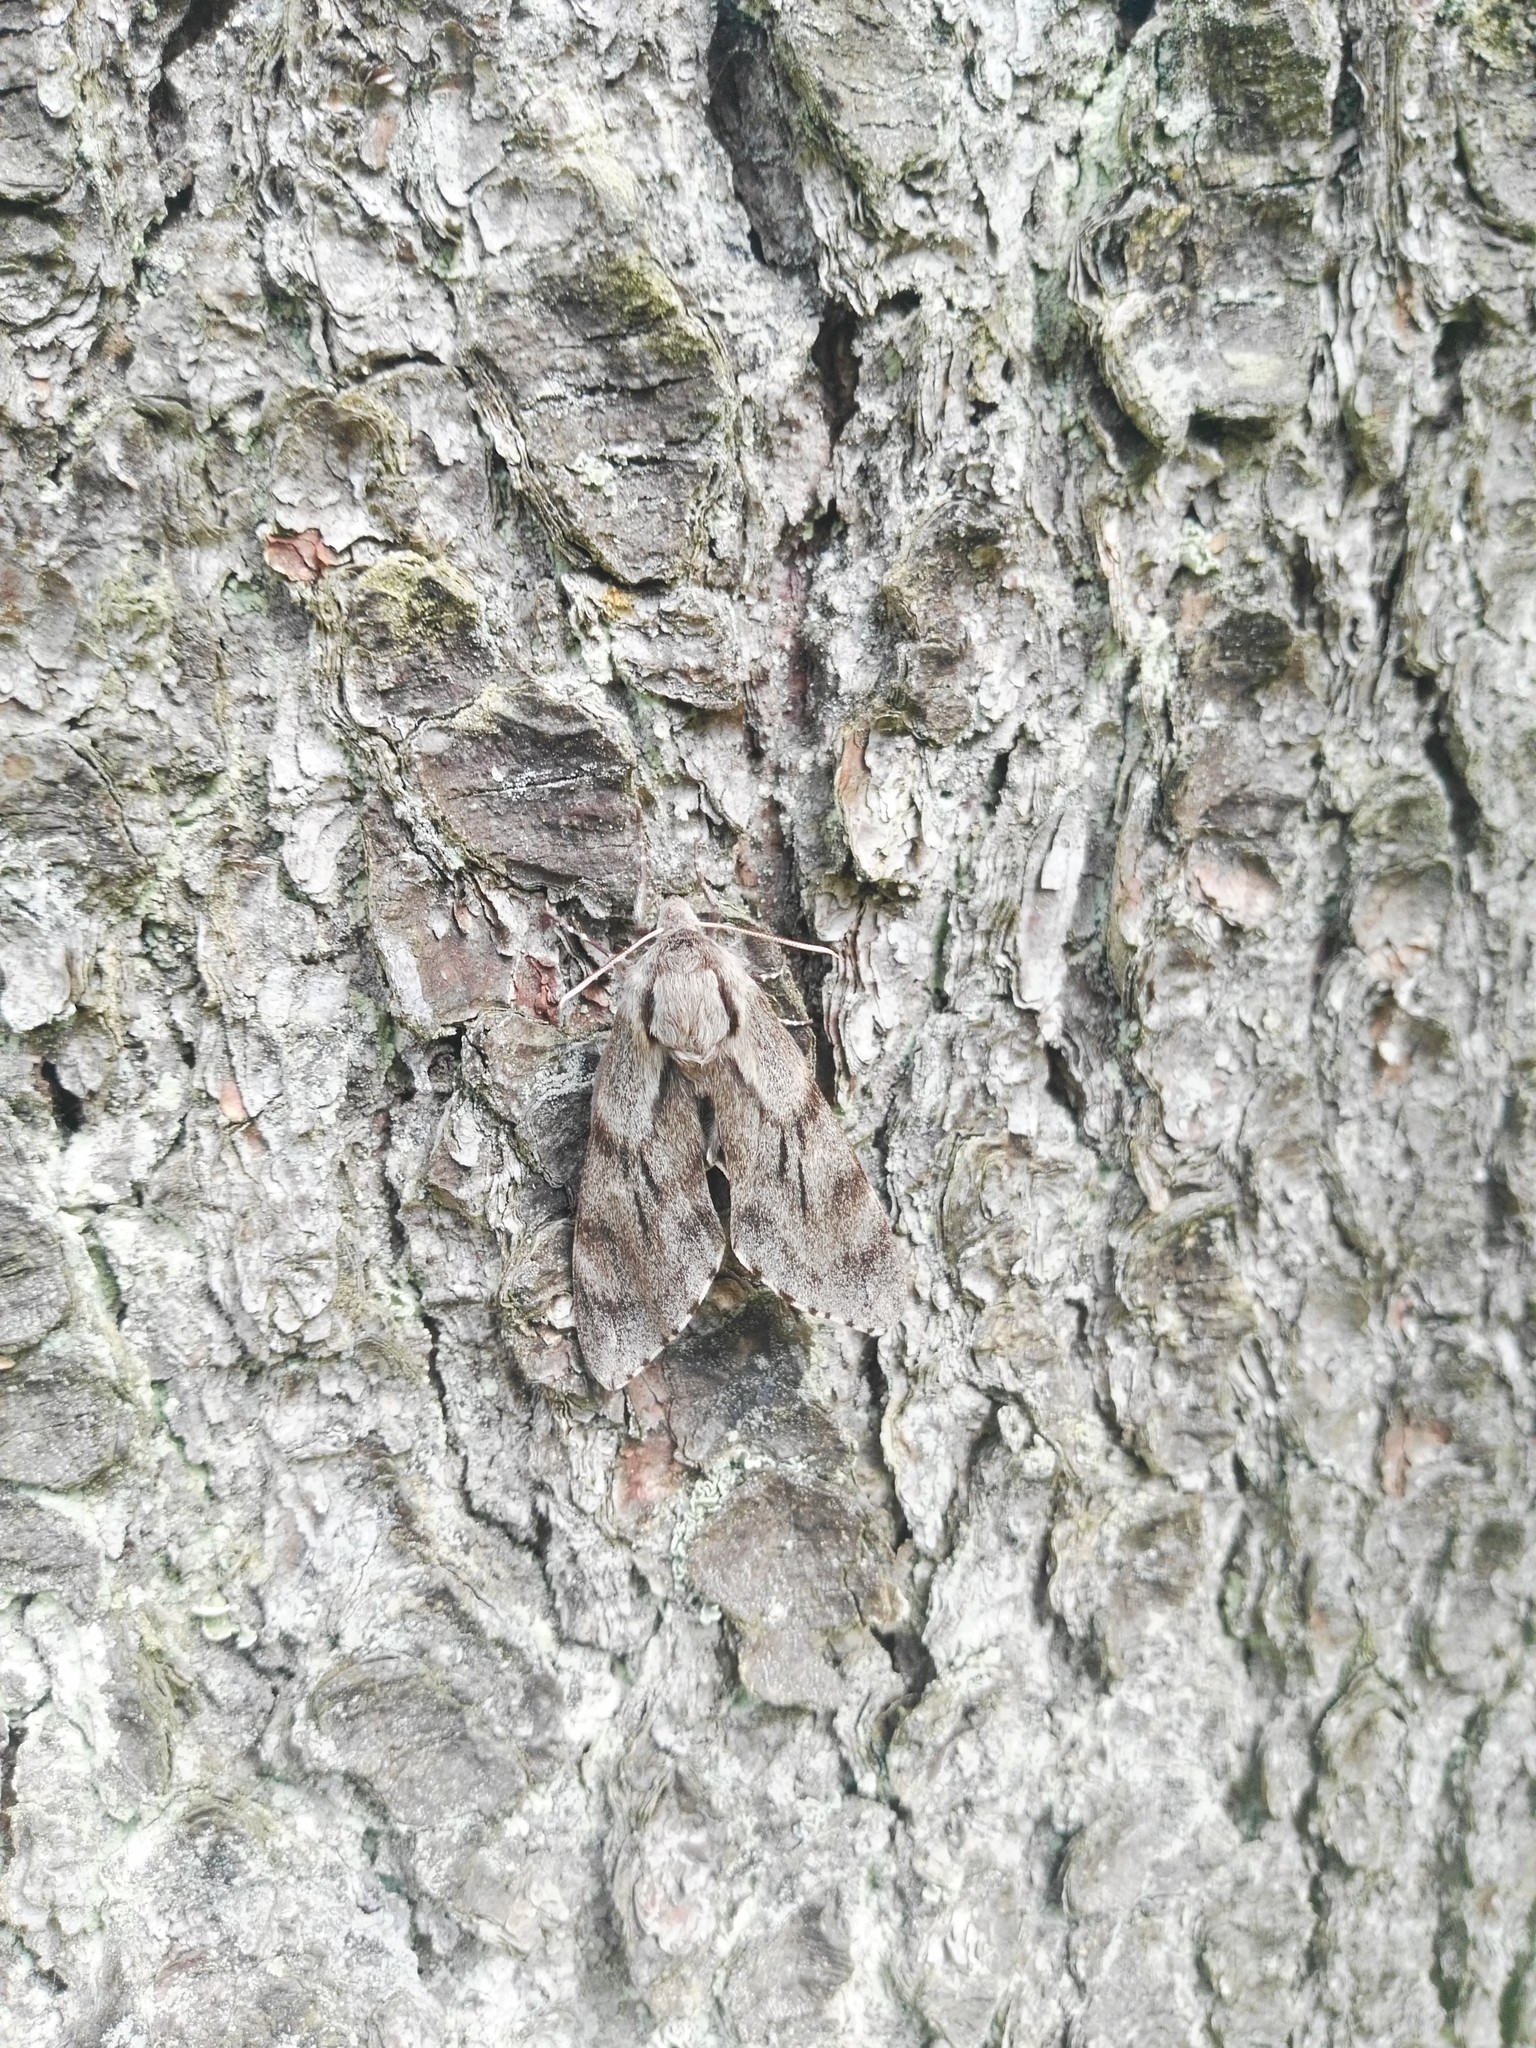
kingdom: Animalia
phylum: Arthropoda
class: Insecta
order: Lepidoptera
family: Sphingidae
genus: Sphinx
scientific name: Sphinx pinastri
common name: Pine hawk-moth
